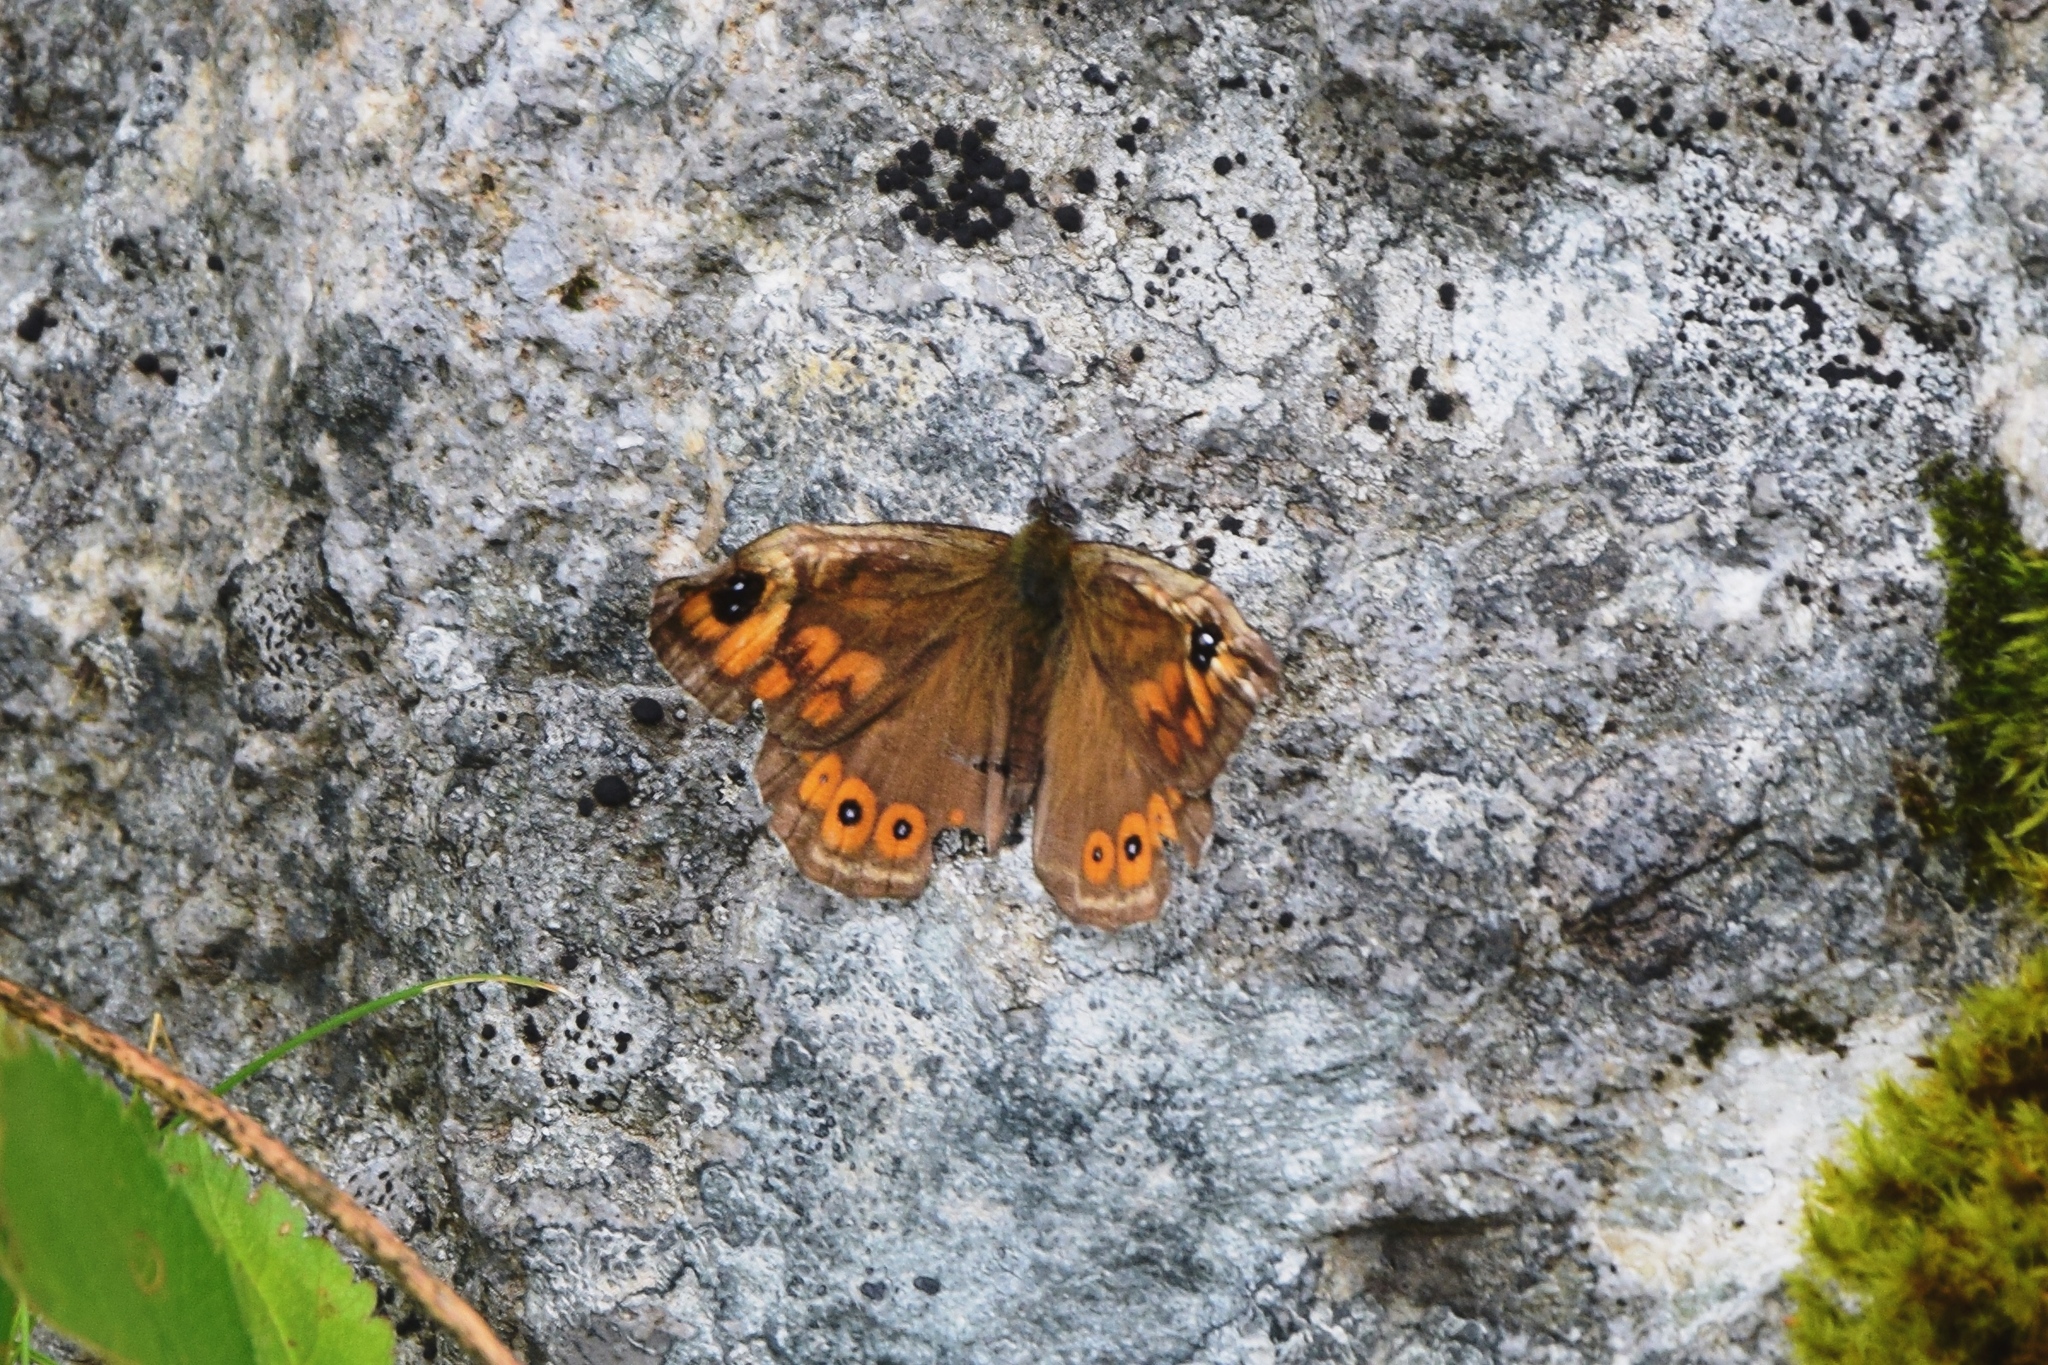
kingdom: Animalia
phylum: Arthropoda
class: Insecta
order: Lepidoptera
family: Nymphalidae
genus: Pararge
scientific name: Pararge Lasiommata maera
